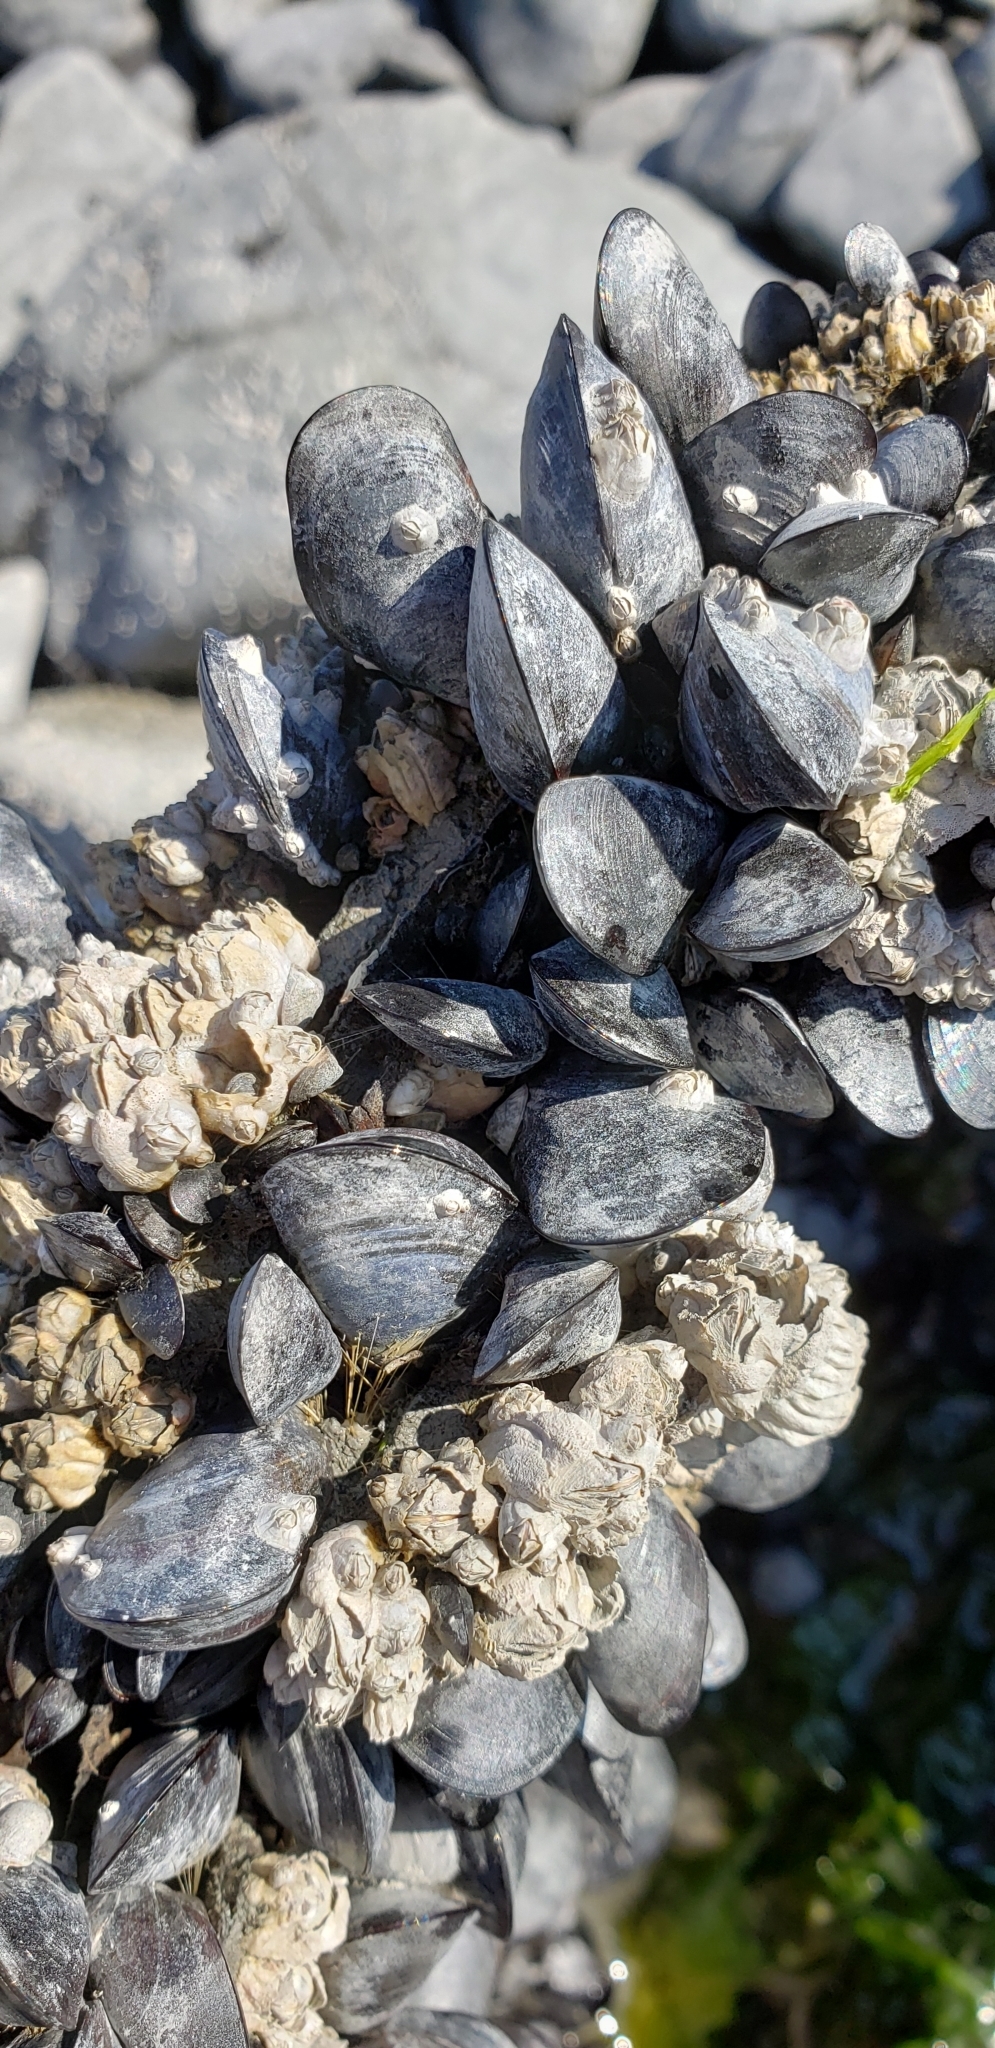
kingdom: Animalia
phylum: Mollusca
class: Bivalvia
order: Mytilida
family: Mytilidae
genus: Mytilus
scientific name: Mytilus trossulus
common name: Northern blue mussel
